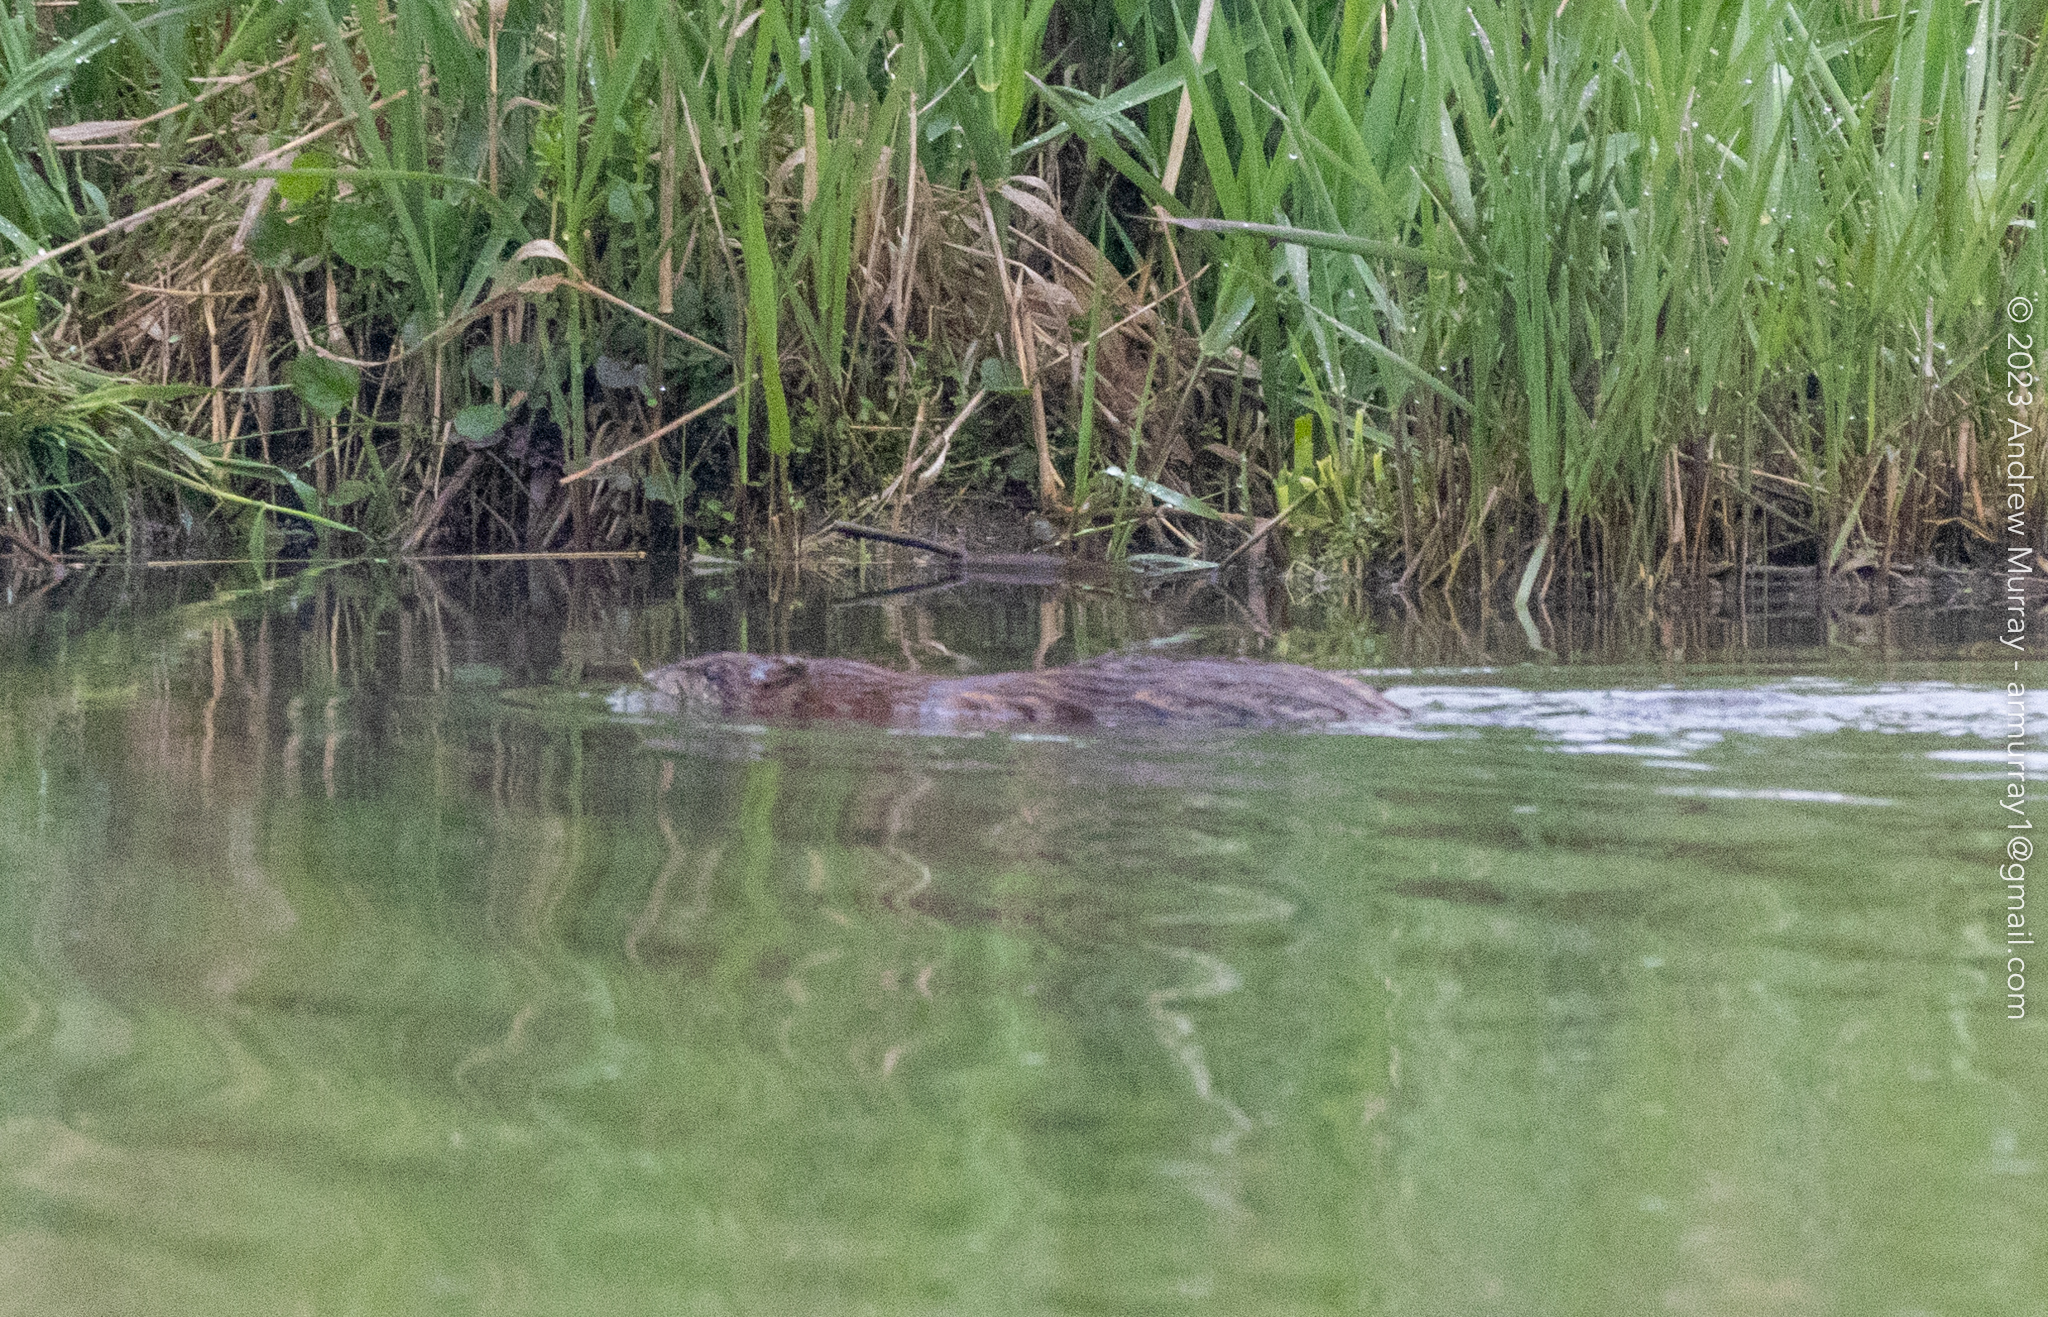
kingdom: Animalia
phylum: Chordata
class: Mammalia
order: Rodentia
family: Cricetidae
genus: Ondatra
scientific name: Ondatra zibethicus
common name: Muskrat
